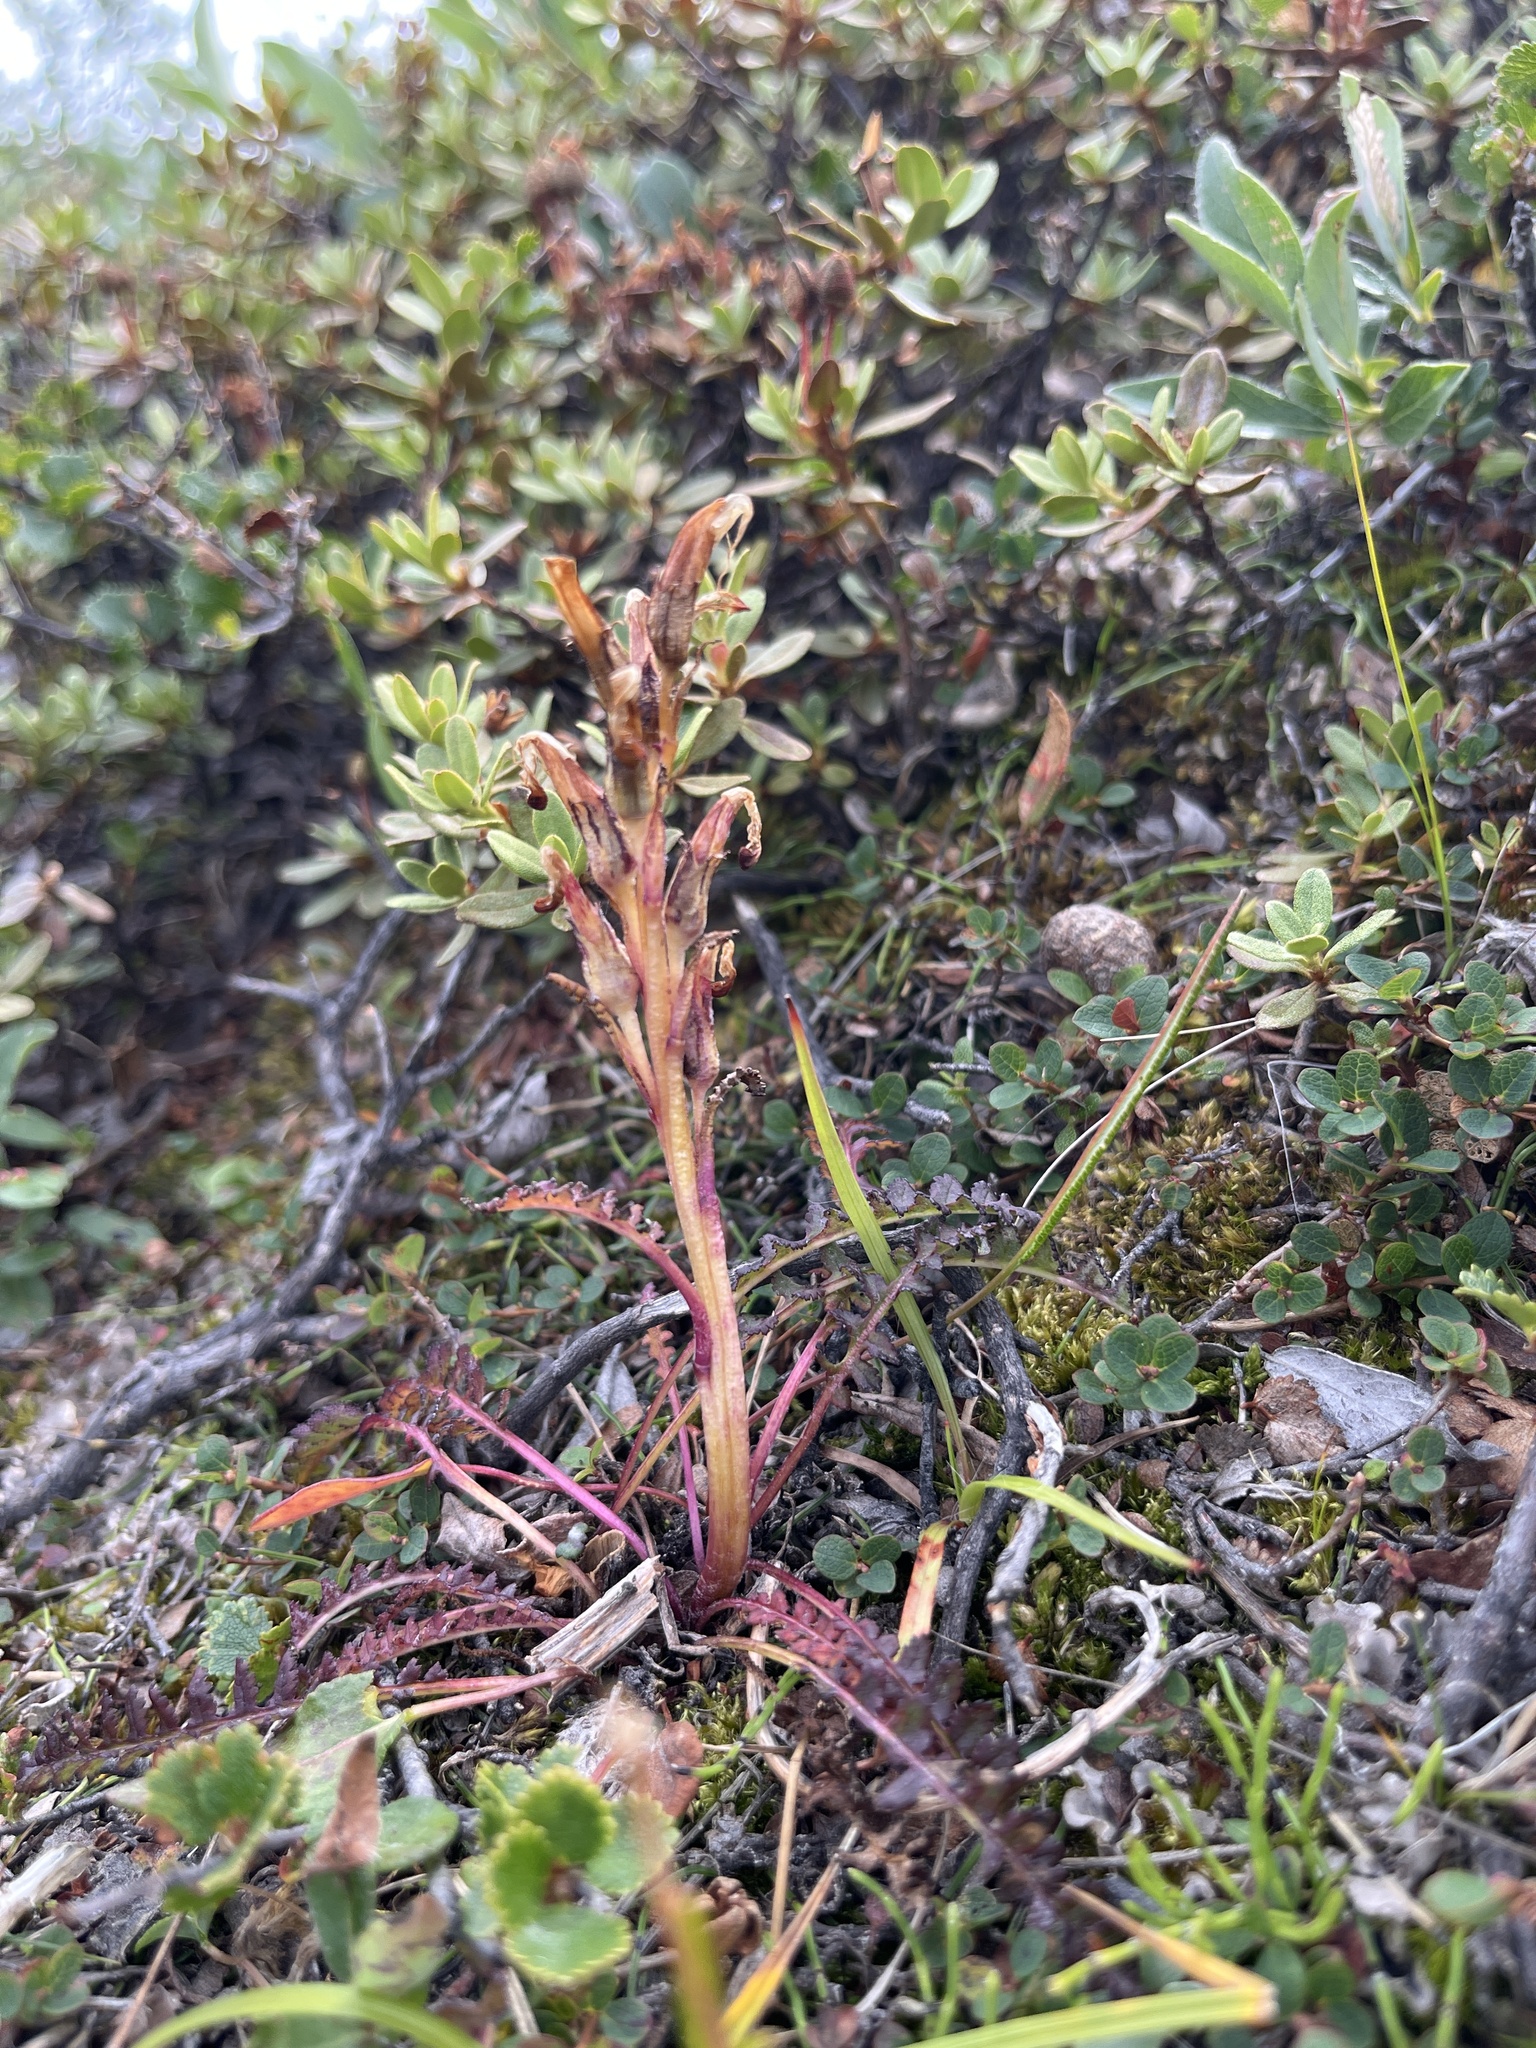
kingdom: Plantae
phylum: Tracheophyta
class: Magnoliopsida
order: Lamiales
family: Orobanchaceae
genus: Pedicularis
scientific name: Pedicularis flammea
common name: Flame-coloured lousewort
